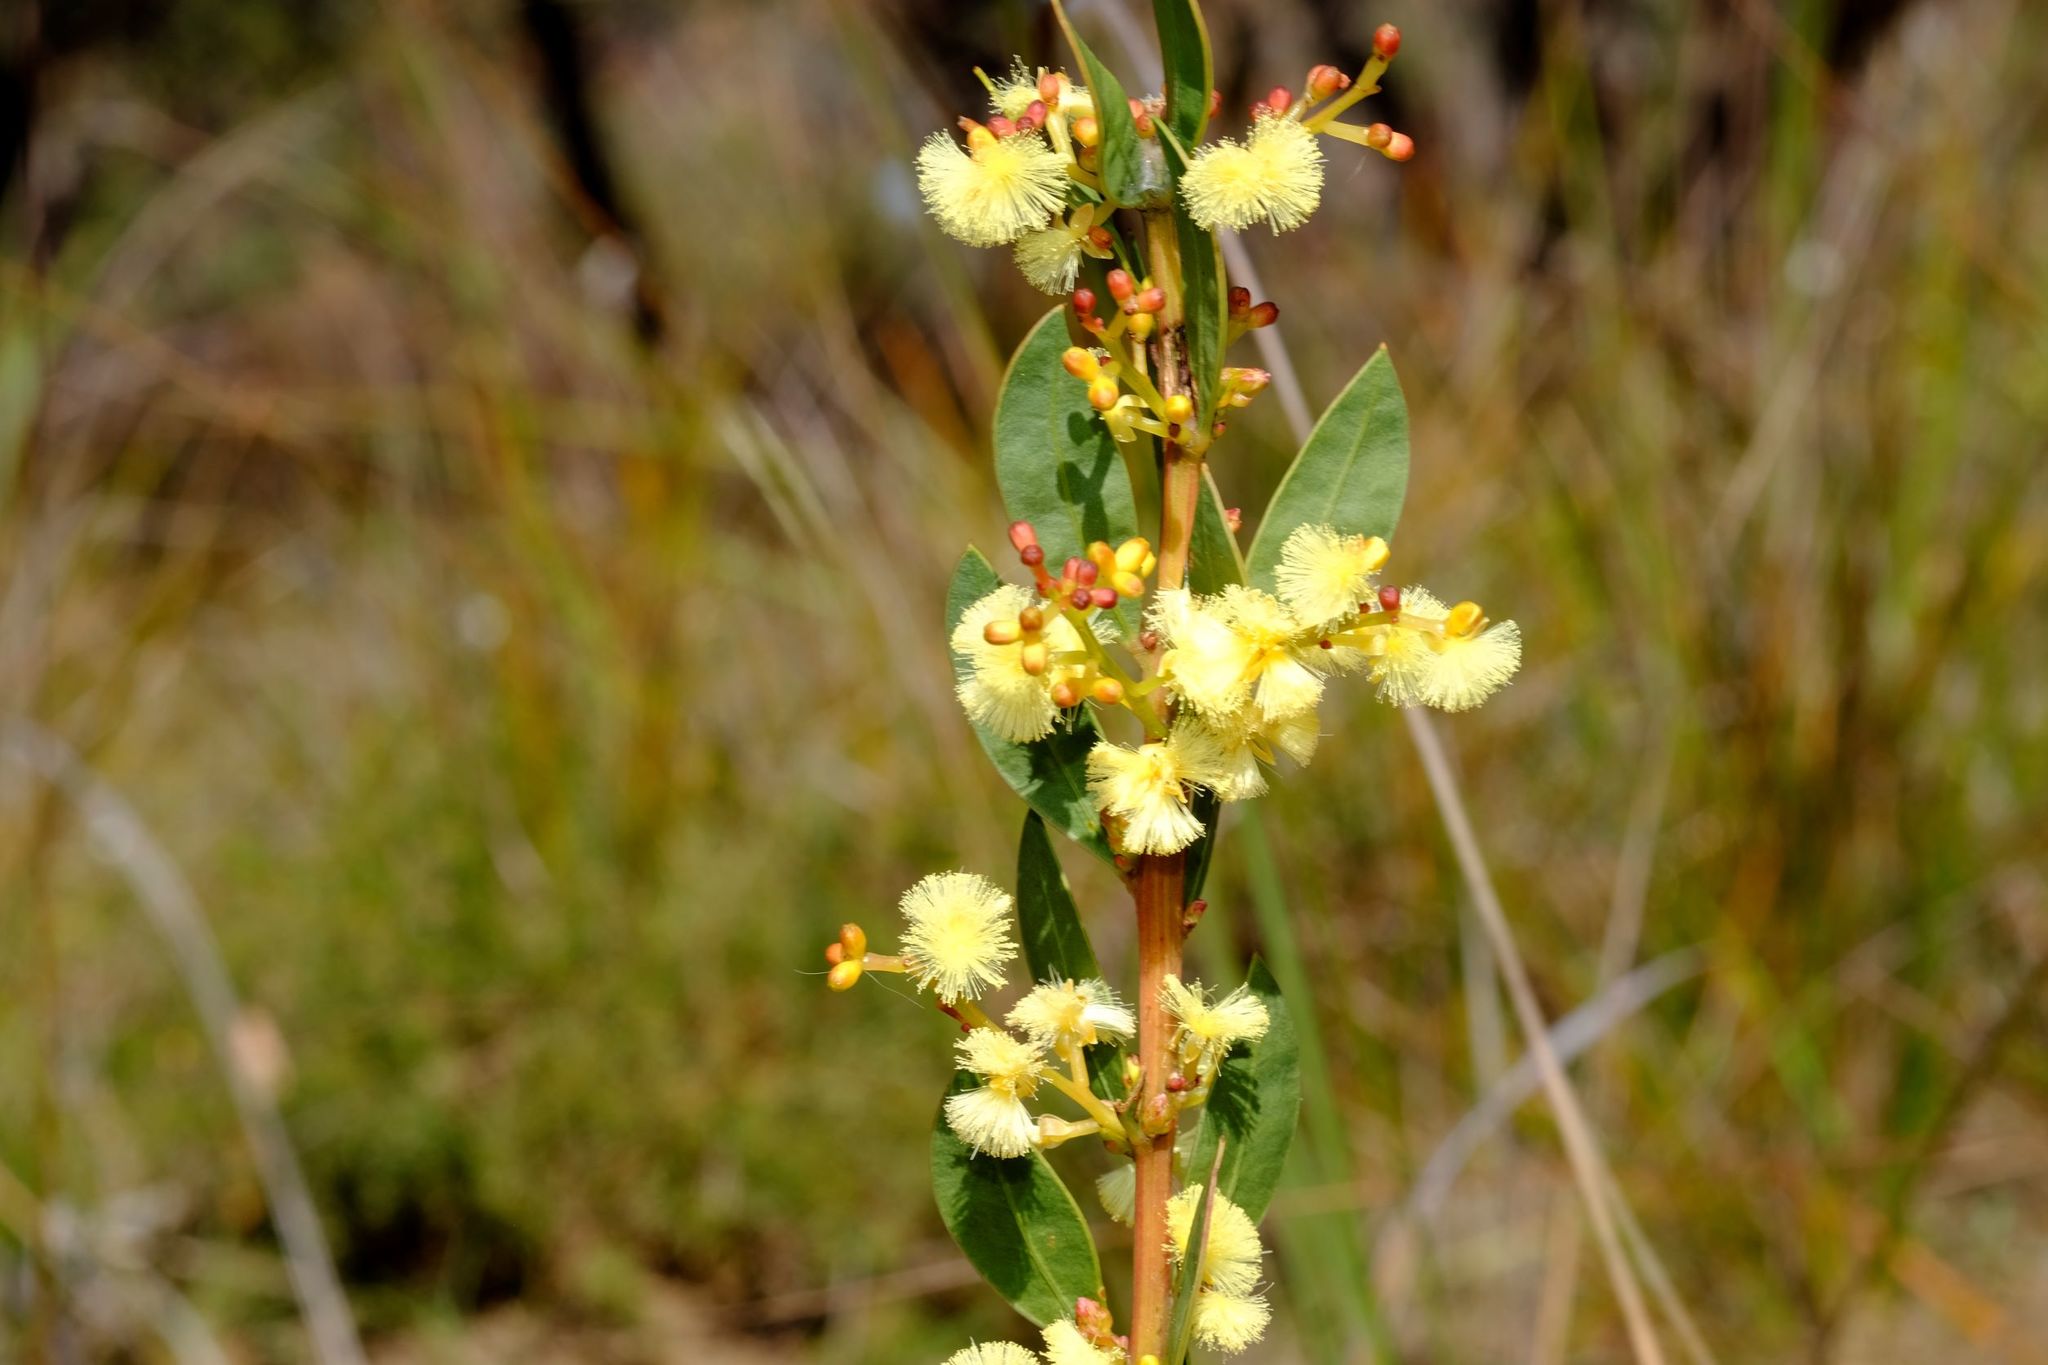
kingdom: Plantae
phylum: Tracheophyta
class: Magnoliopsida
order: Fabales
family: Fabaceae
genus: Acacia
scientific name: Acacia myrtifolia
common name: Myrtle wattle
